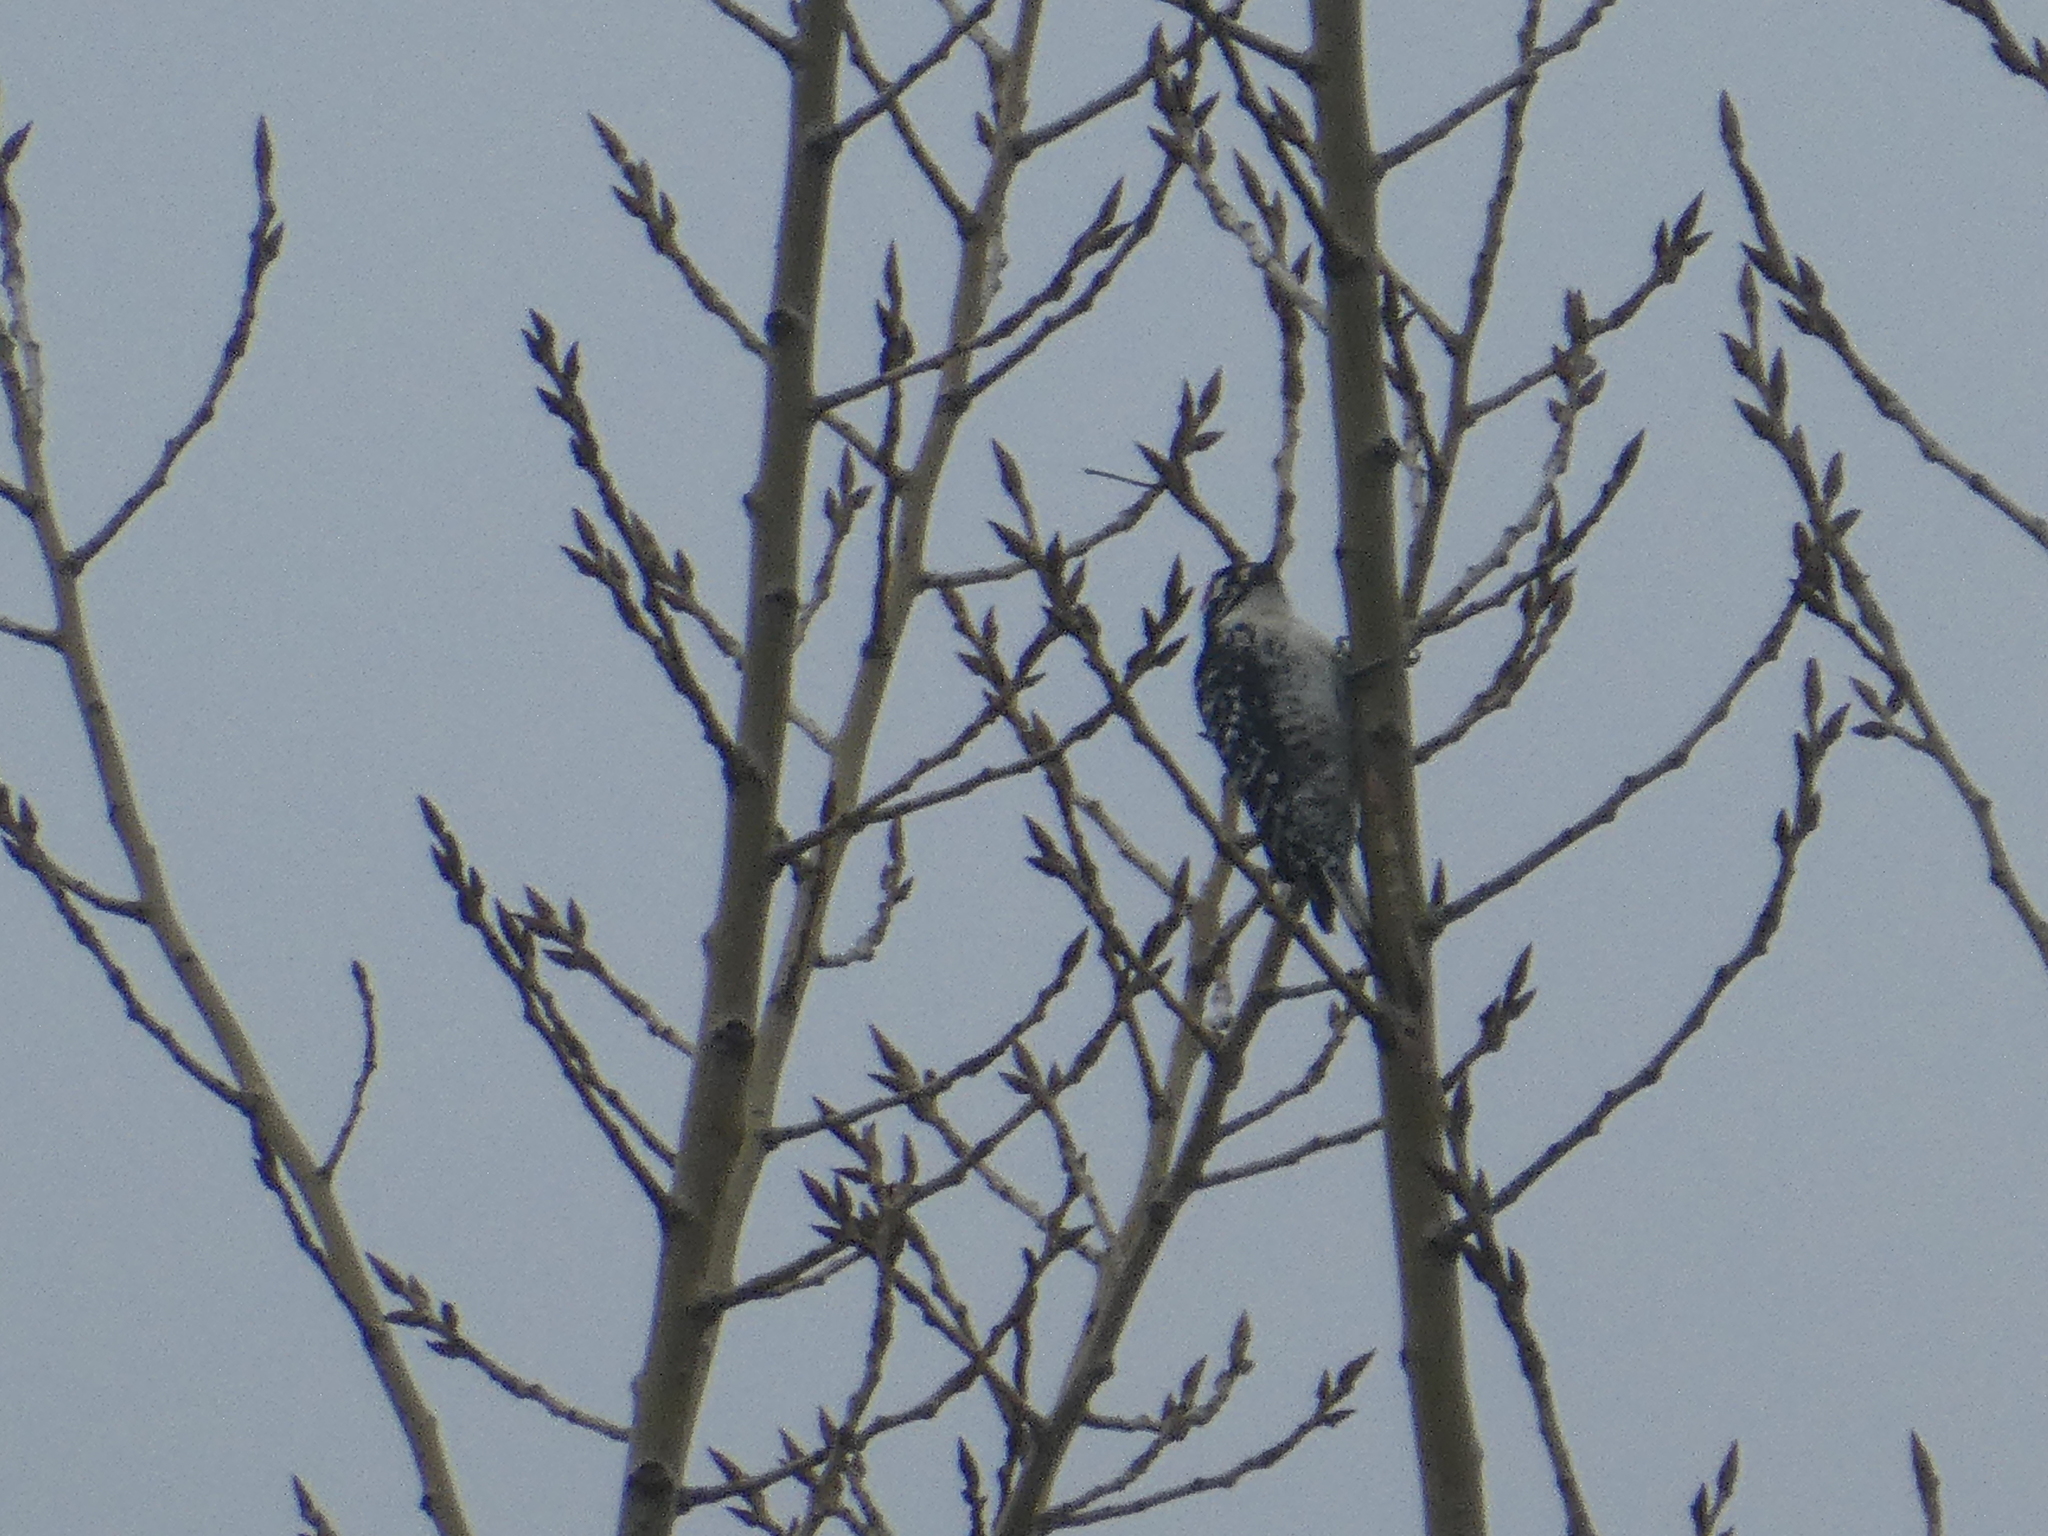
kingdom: Animalia
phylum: Chordata
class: Aves
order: Piciformes
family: Picidae
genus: Dryobates
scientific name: Dryobates nuttallii
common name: Nuttall's woodpecker
